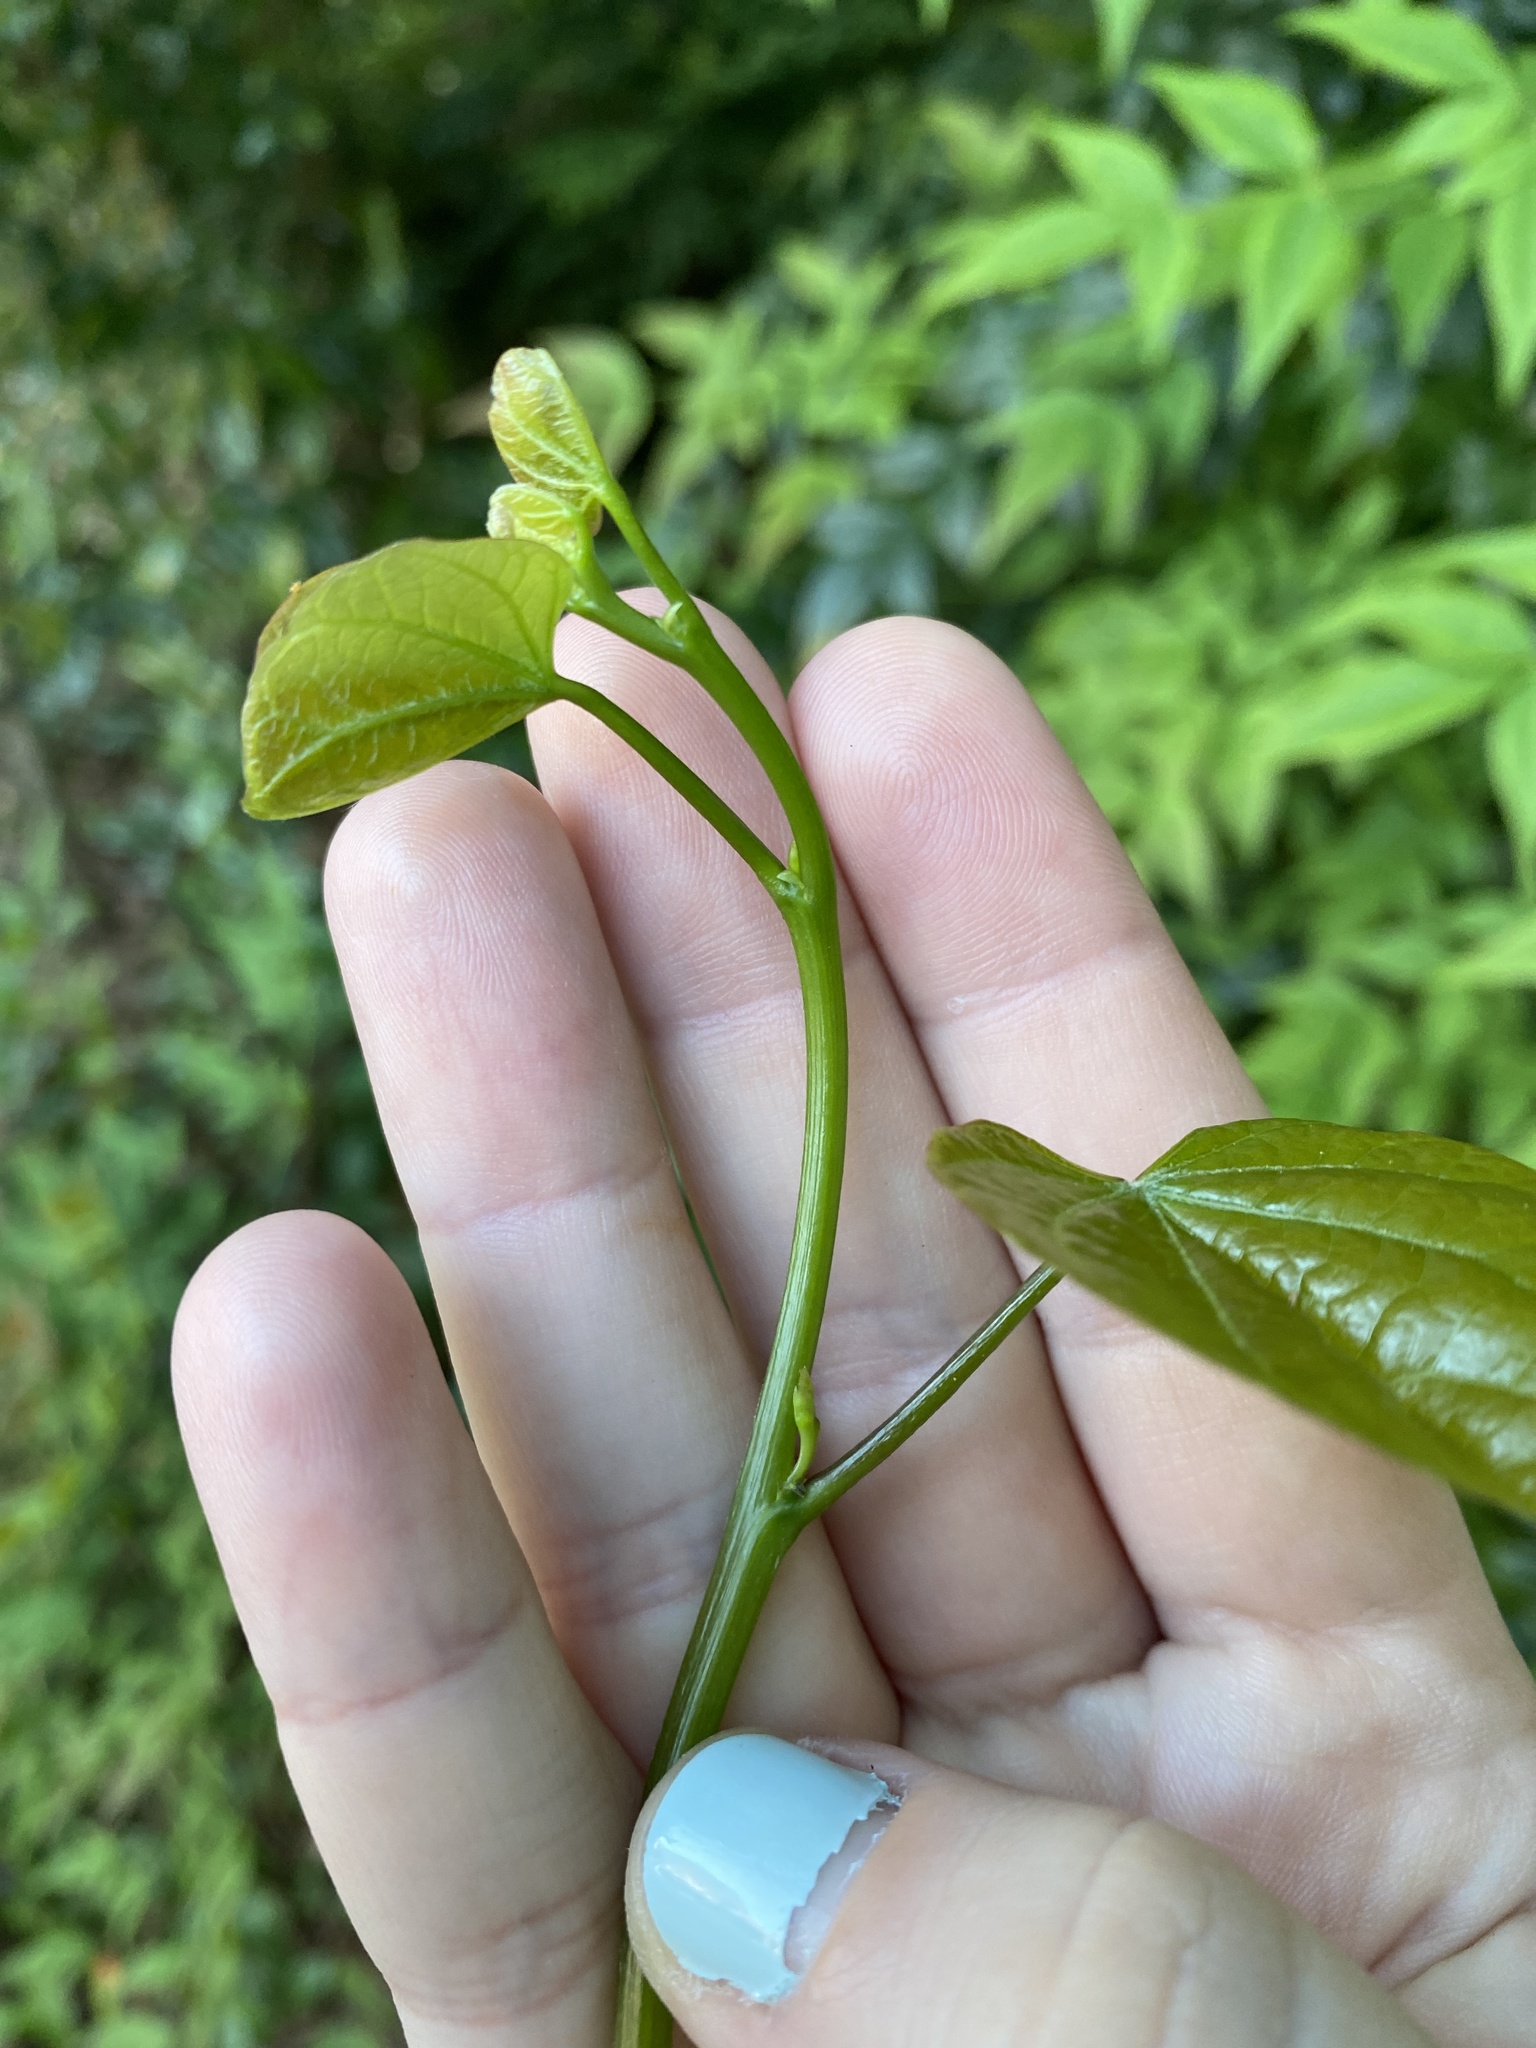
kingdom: Plantae
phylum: Tracheophyta
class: Magnoliopsida
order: Fabales
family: Fabaceae
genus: Cercis
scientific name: Cercis canadensis
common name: Eastern redbud
